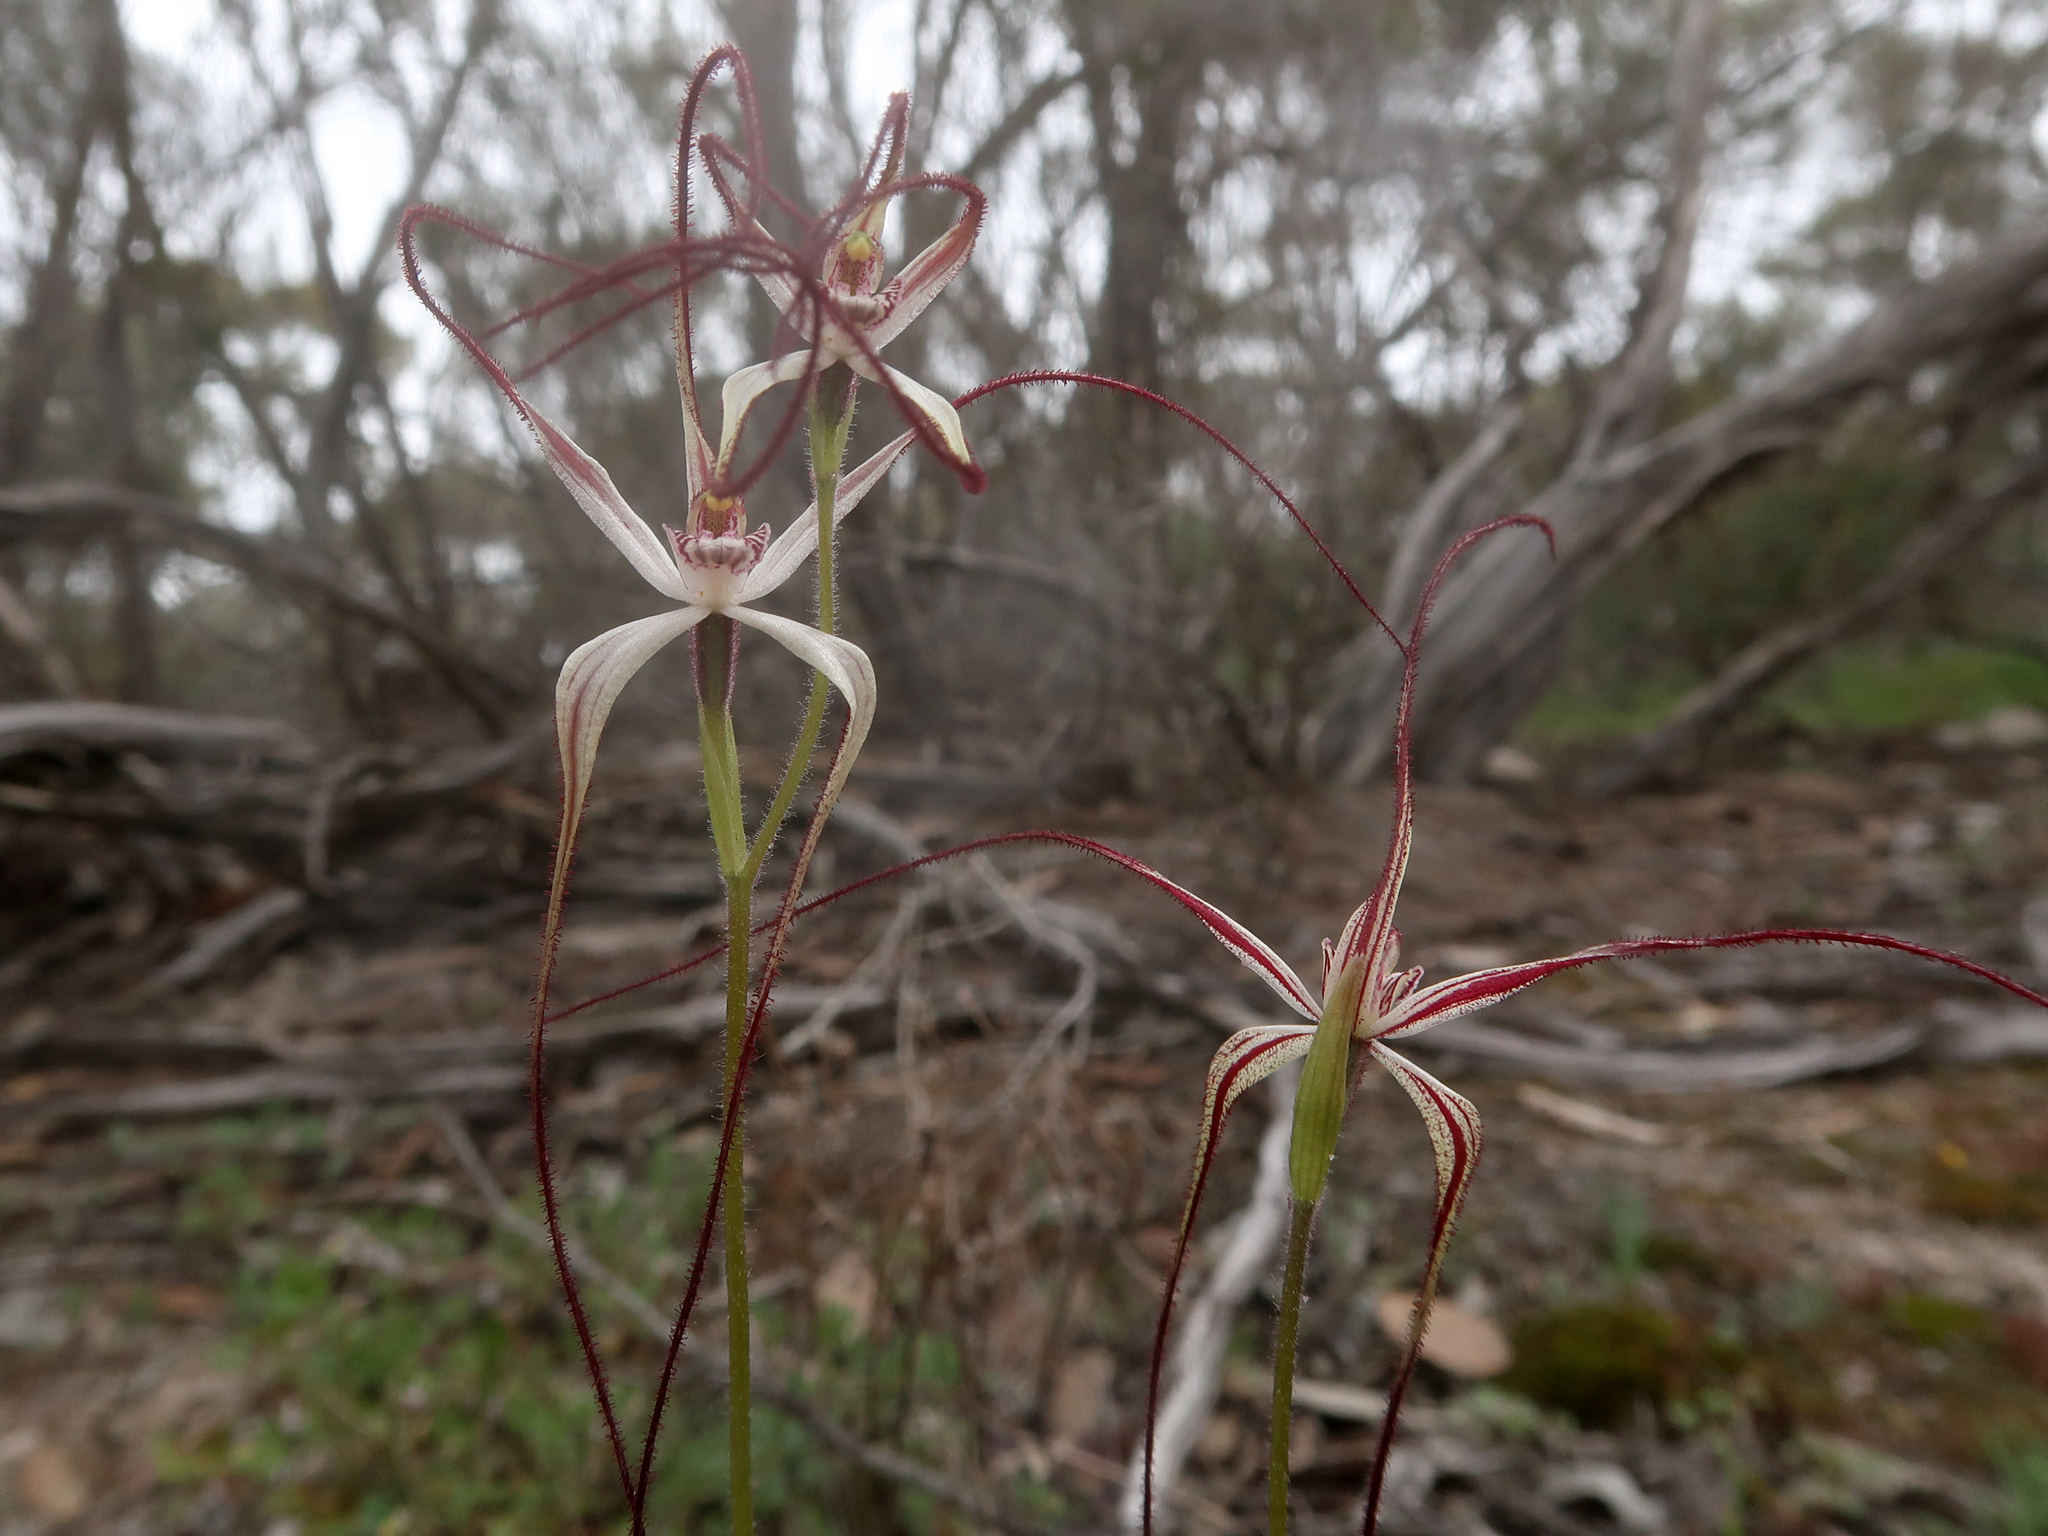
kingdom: Plantae
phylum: Tracheophyta
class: Liliopsida
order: Asparagales
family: Orchidaceae
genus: Caladenia
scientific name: Caladenia capillata
